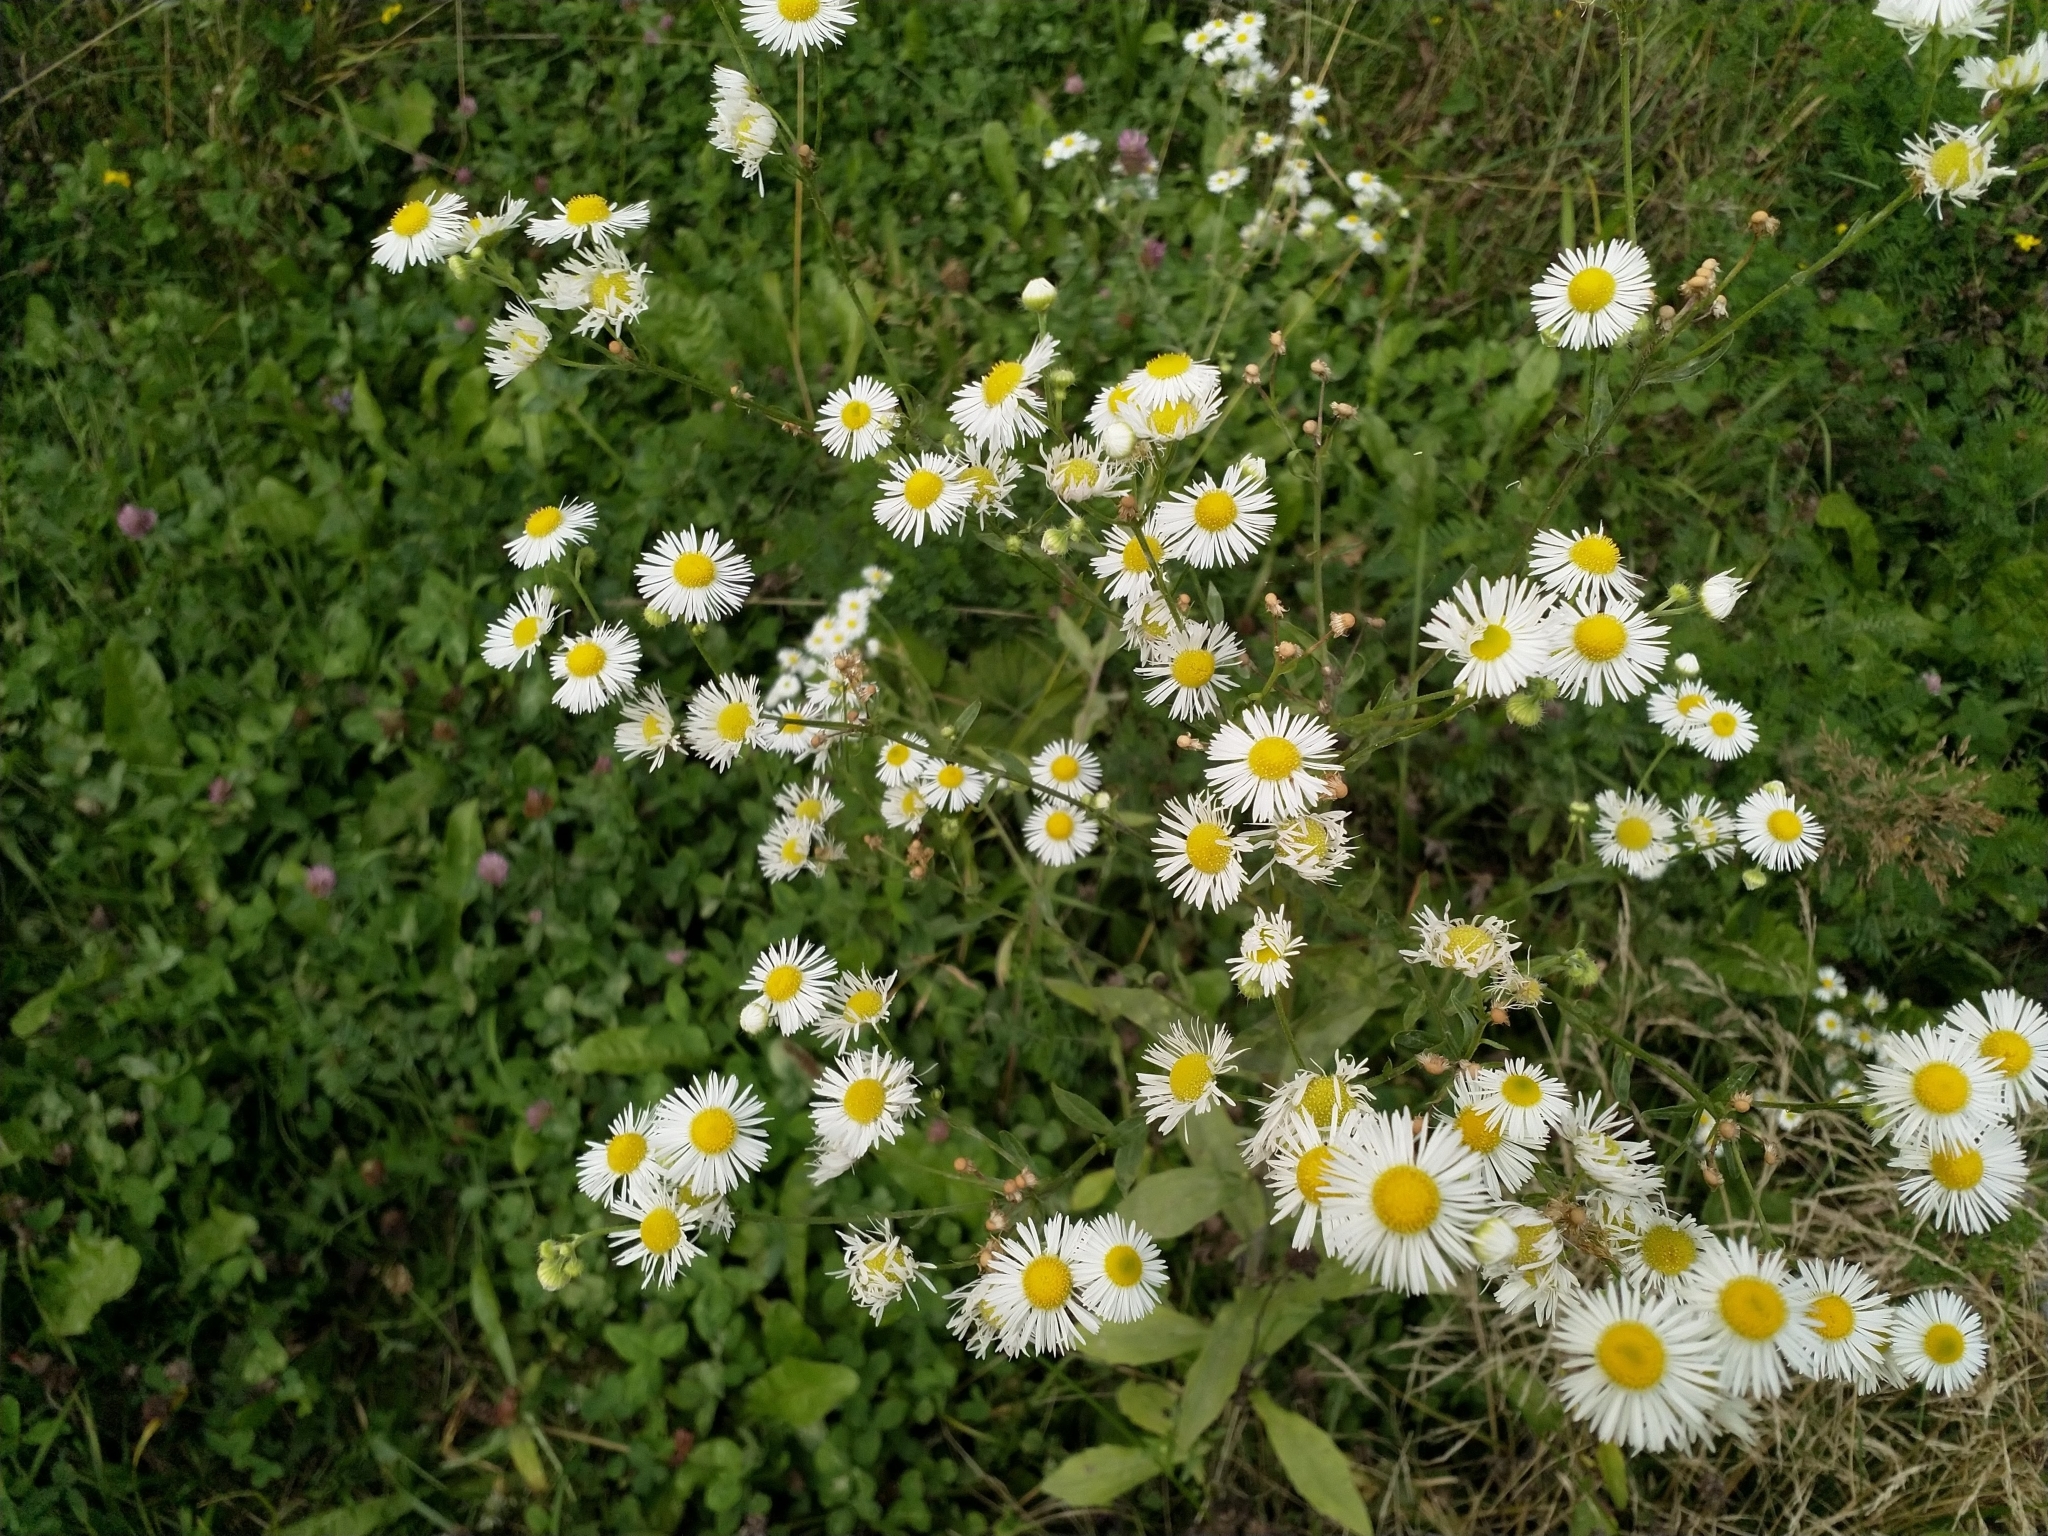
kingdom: Plantae
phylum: Tracheophyta
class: Magnoliopsida
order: Asterales
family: Asteraceae
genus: Erigeron
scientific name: Erigeron annuus
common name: Tall fleabane
